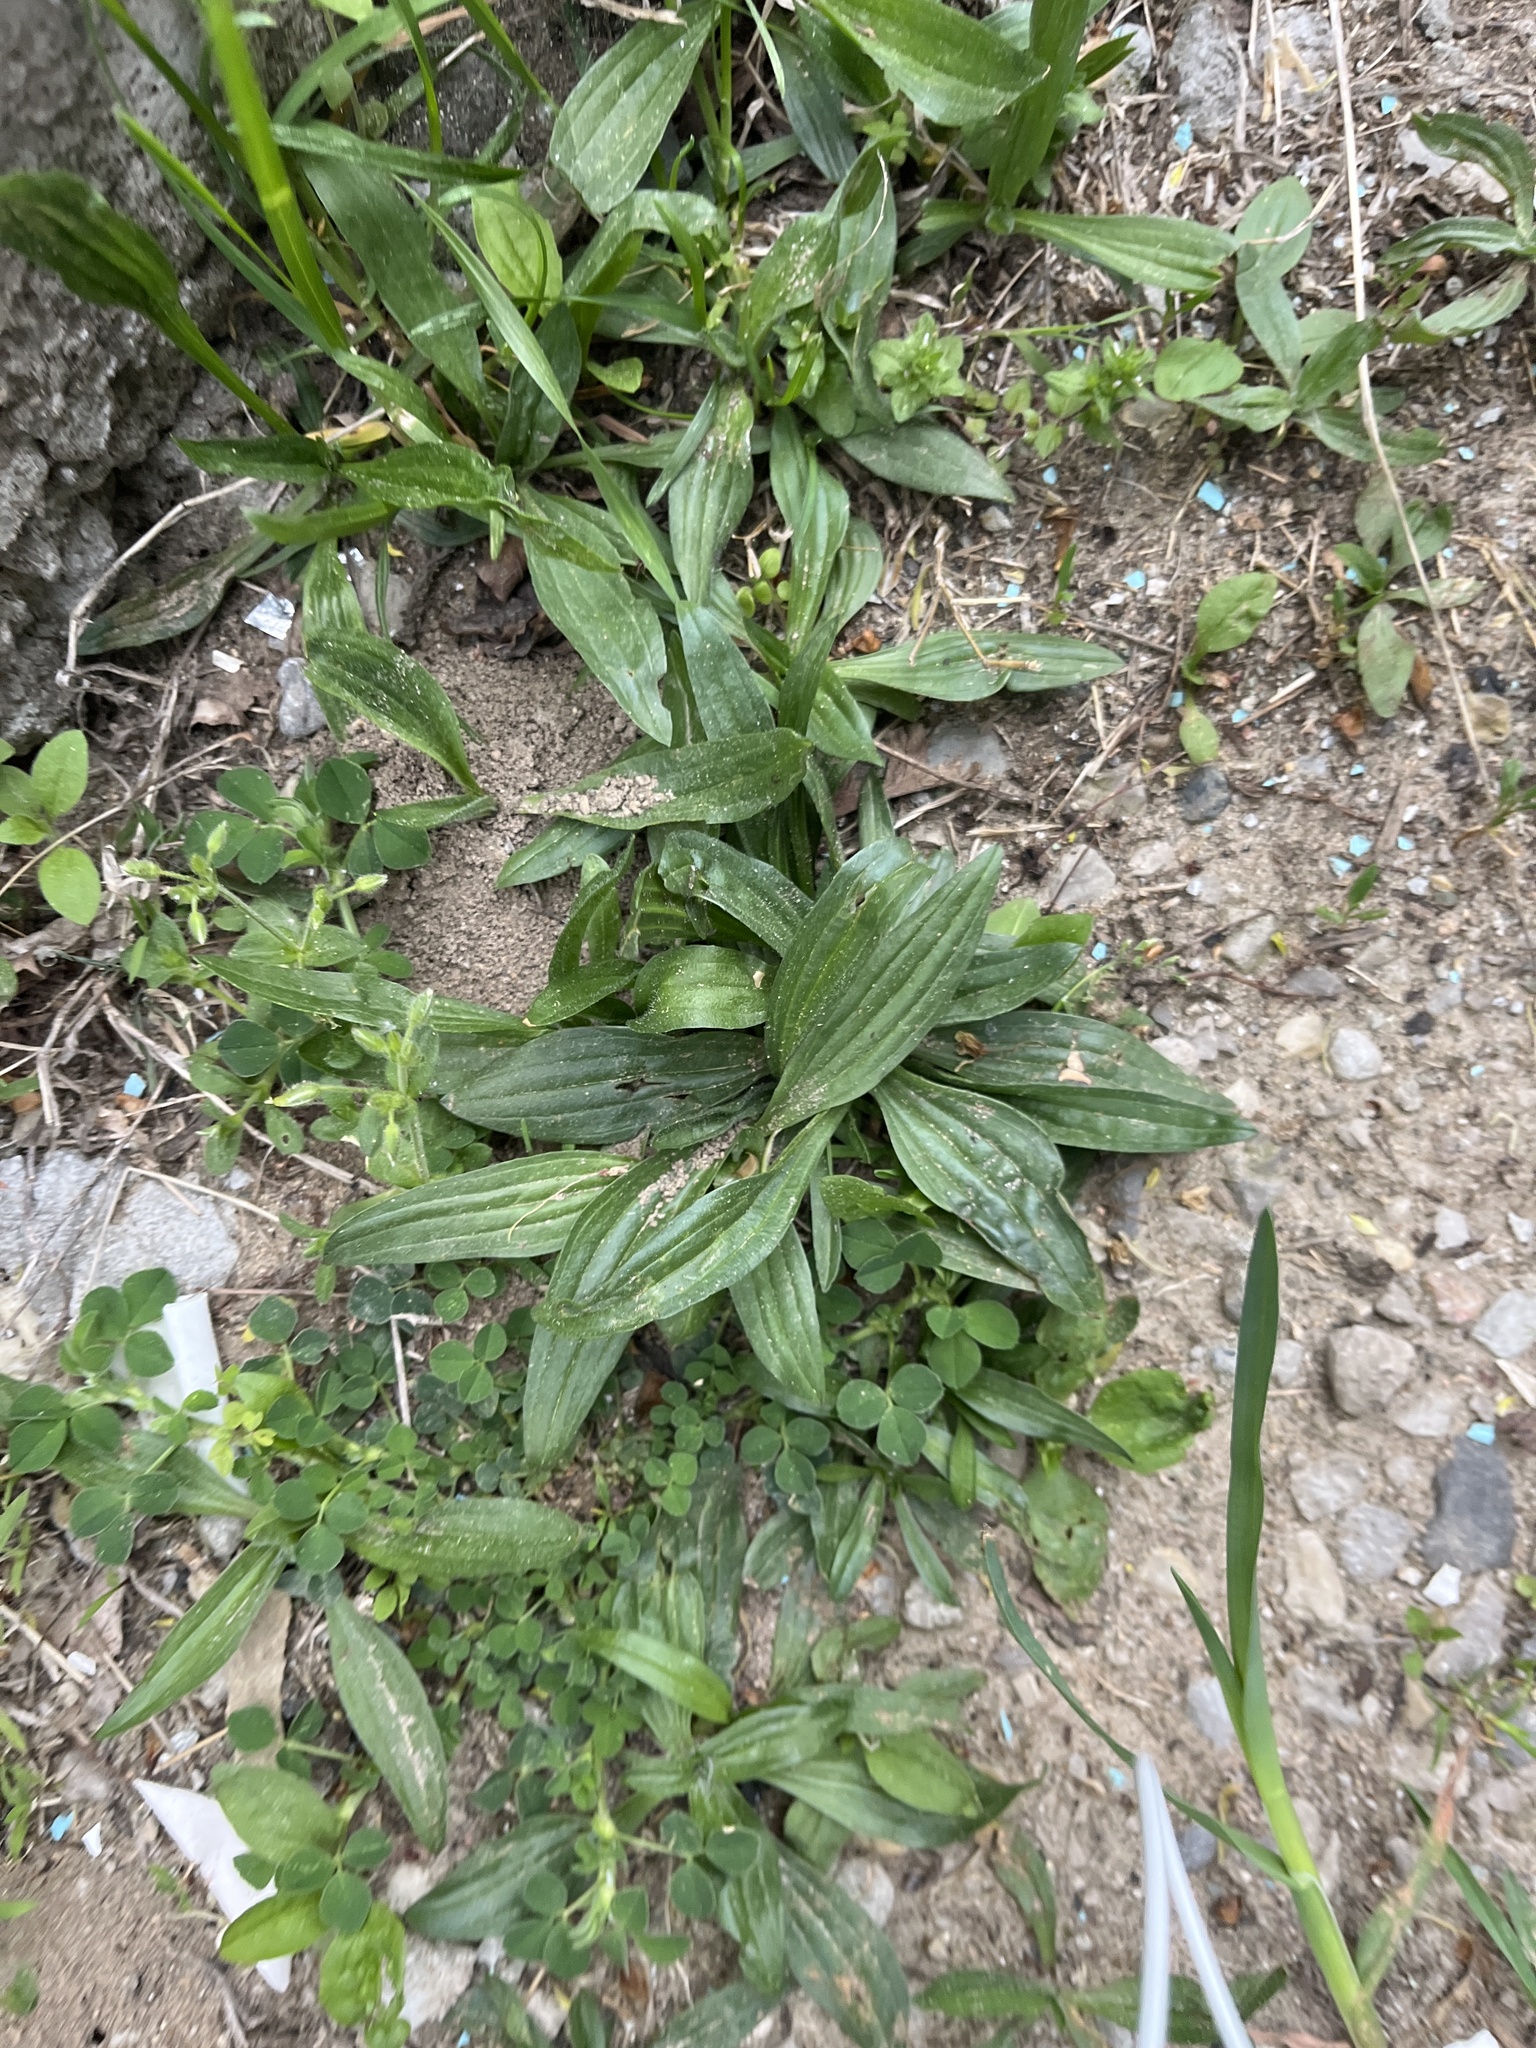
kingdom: Plantae
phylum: Tracheophyta
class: Magnoliopsida
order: Lamiales
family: Plantaginaceae
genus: Plantago
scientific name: Plantago lanceolata
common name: Ribwort plantain
